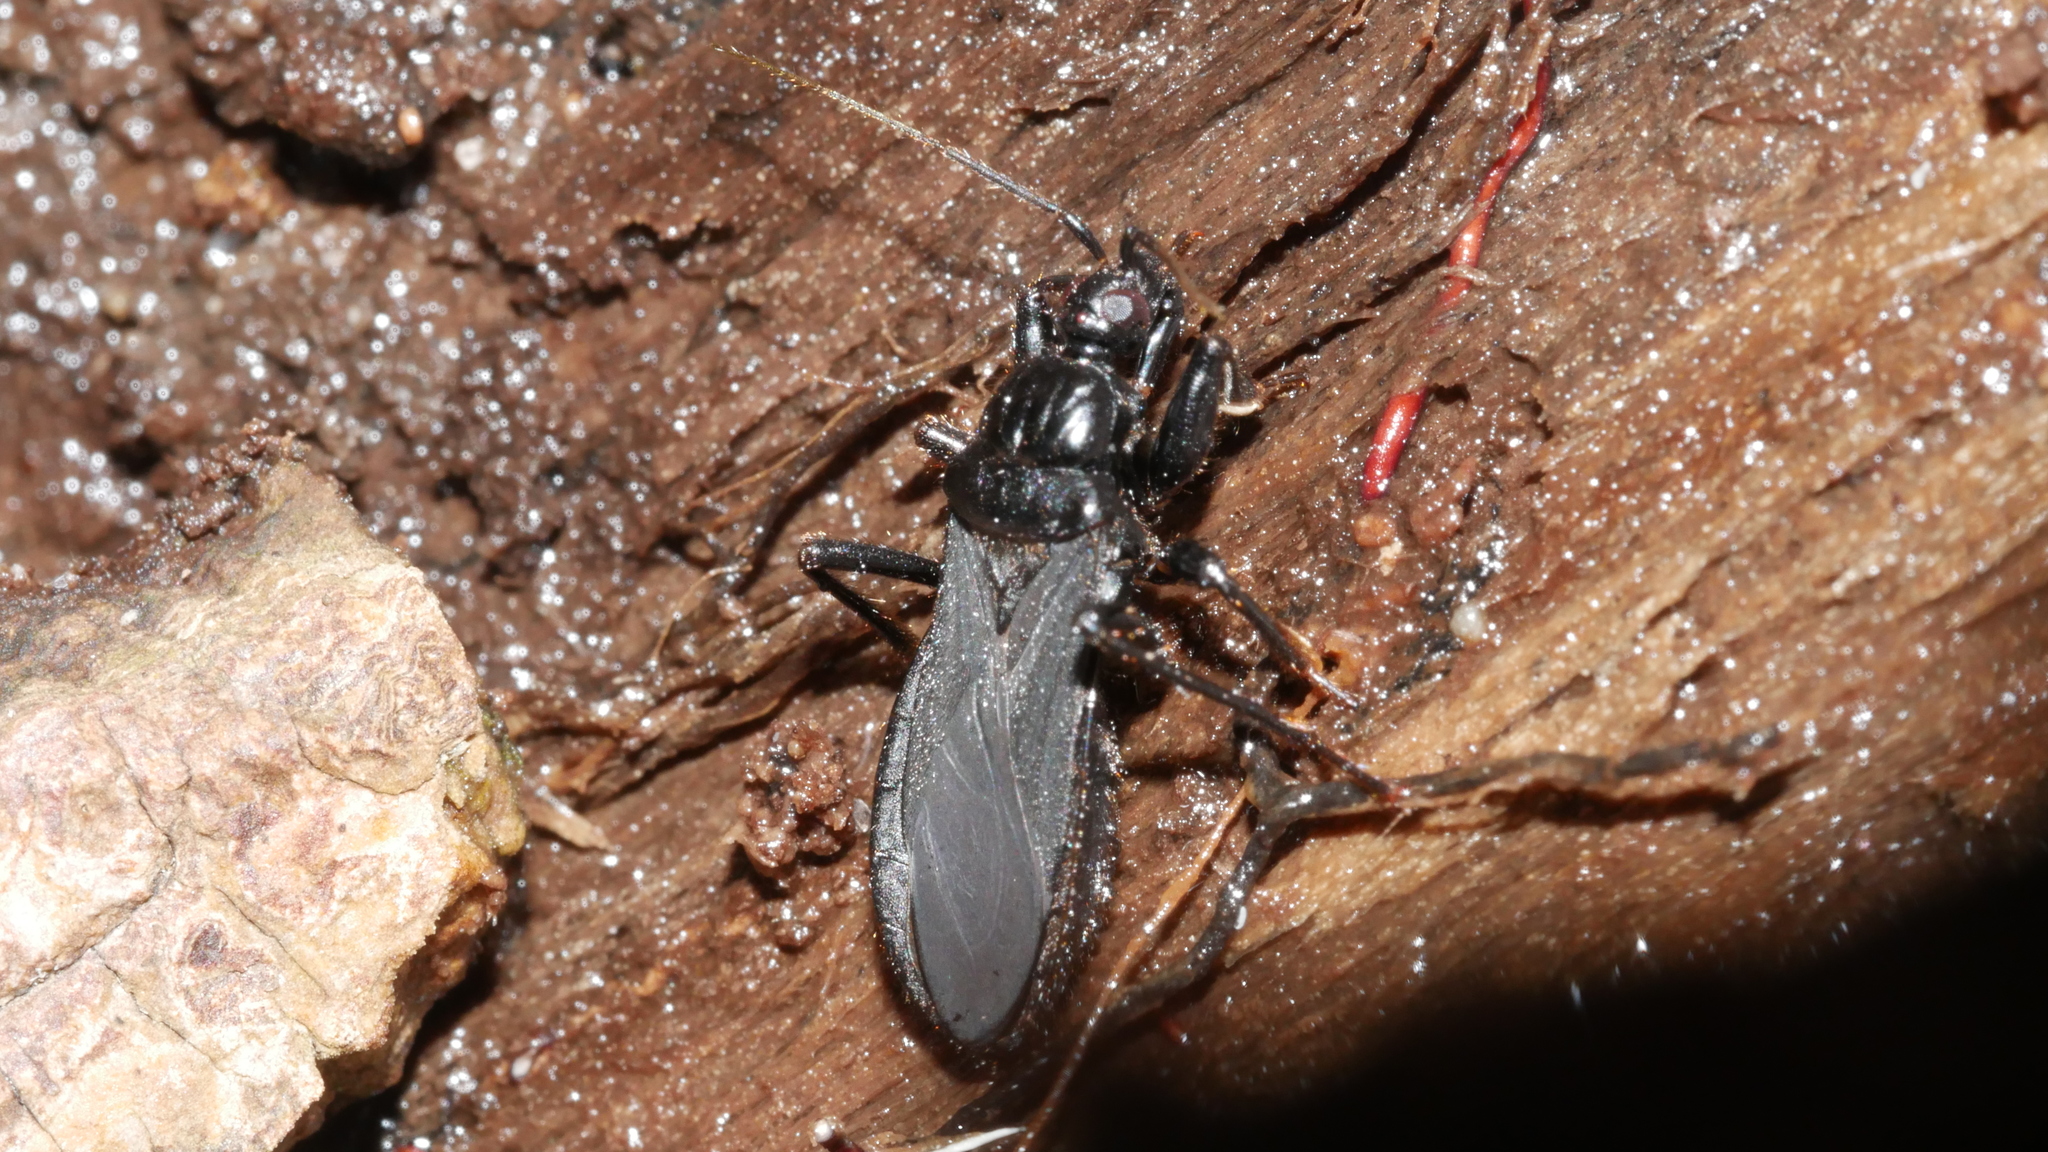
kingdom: Animalia
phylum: Arthropoda
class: Insecta
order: Hemiptera
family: Reduviidae
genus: Melanolestes
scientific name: Melanolestes picipes
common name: Assassin bug
